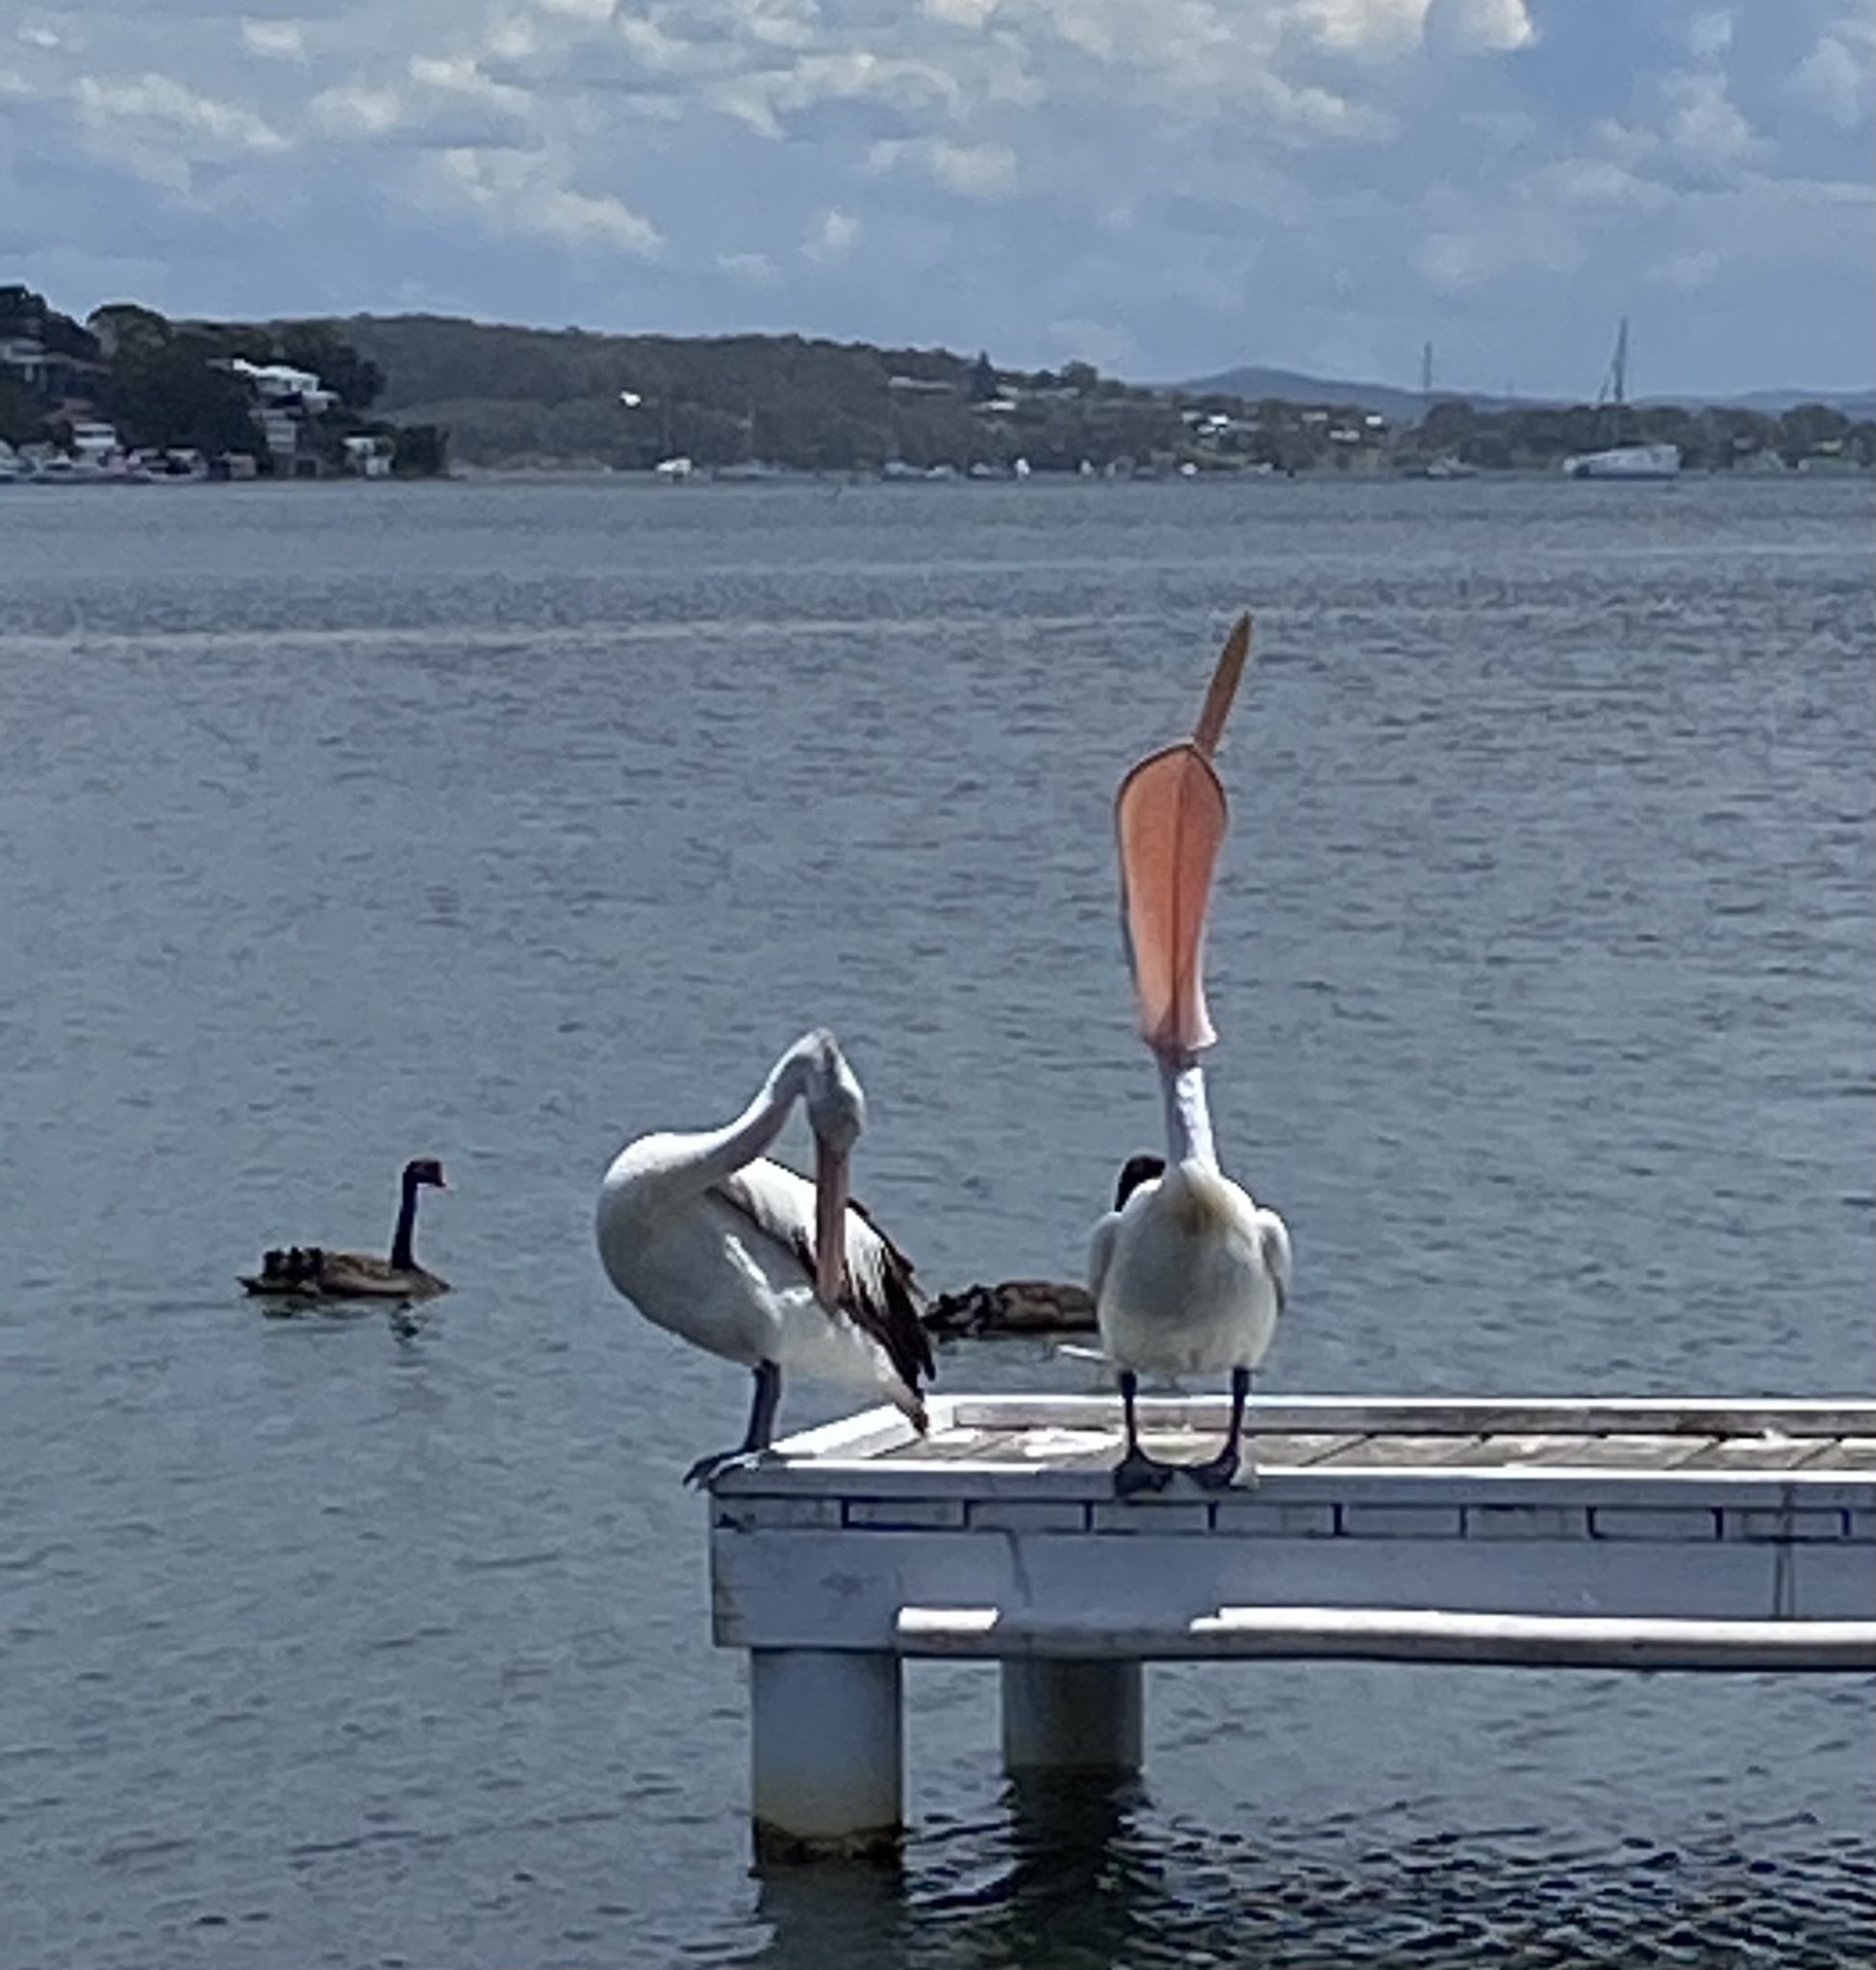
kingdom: Animalia
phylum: Chordata
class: Aves
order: Pelecaniformes
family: Pelecanidae
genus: Pelecanus
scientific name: Pelecanus conspicillatus
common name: Australian pelican
